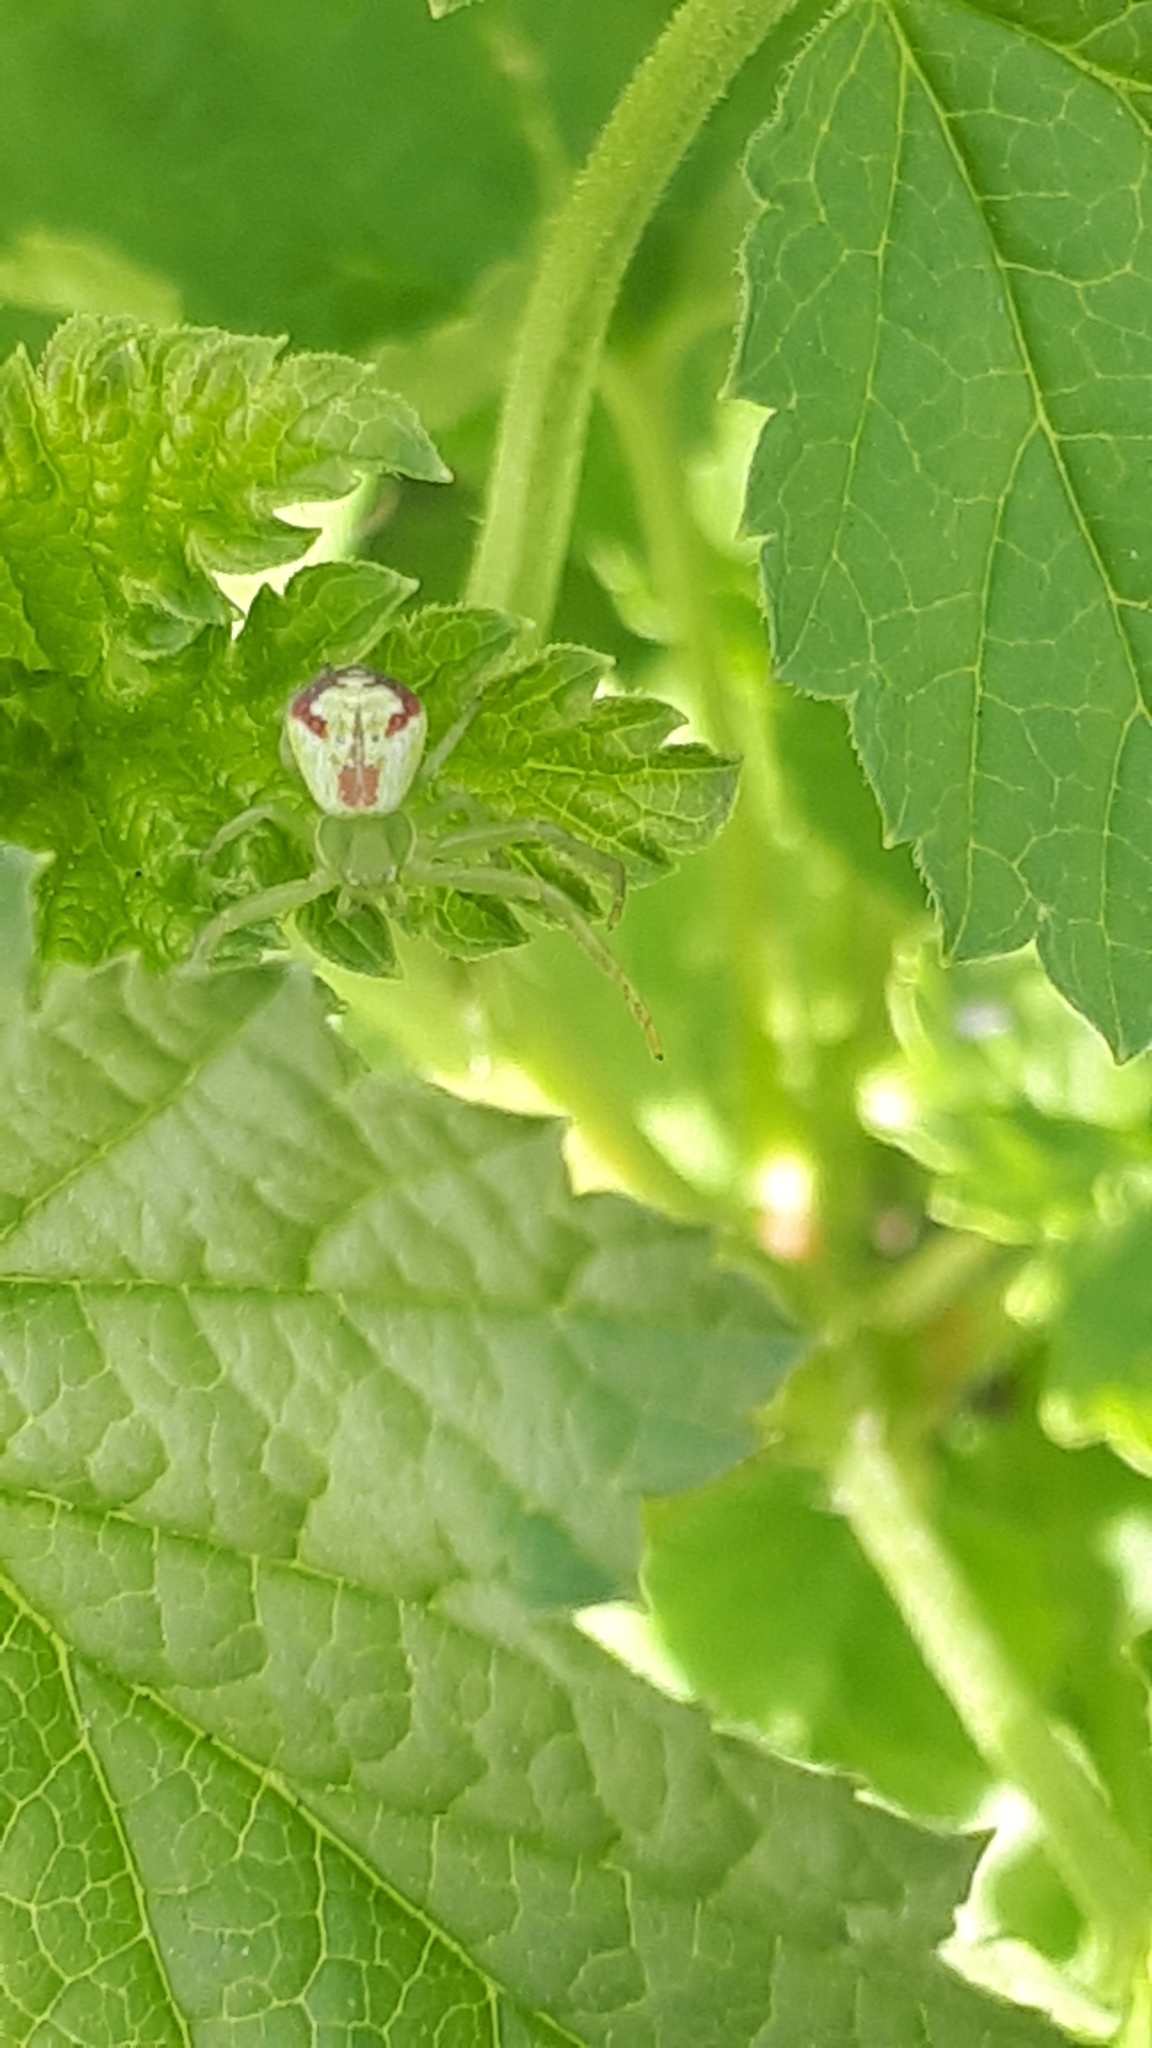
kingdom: Animalia
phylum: Arthropoda
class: Arachnida
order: Araneae
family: Thomisidae
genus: Ebrechtella
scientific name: Ebrechtella tricuspidata
